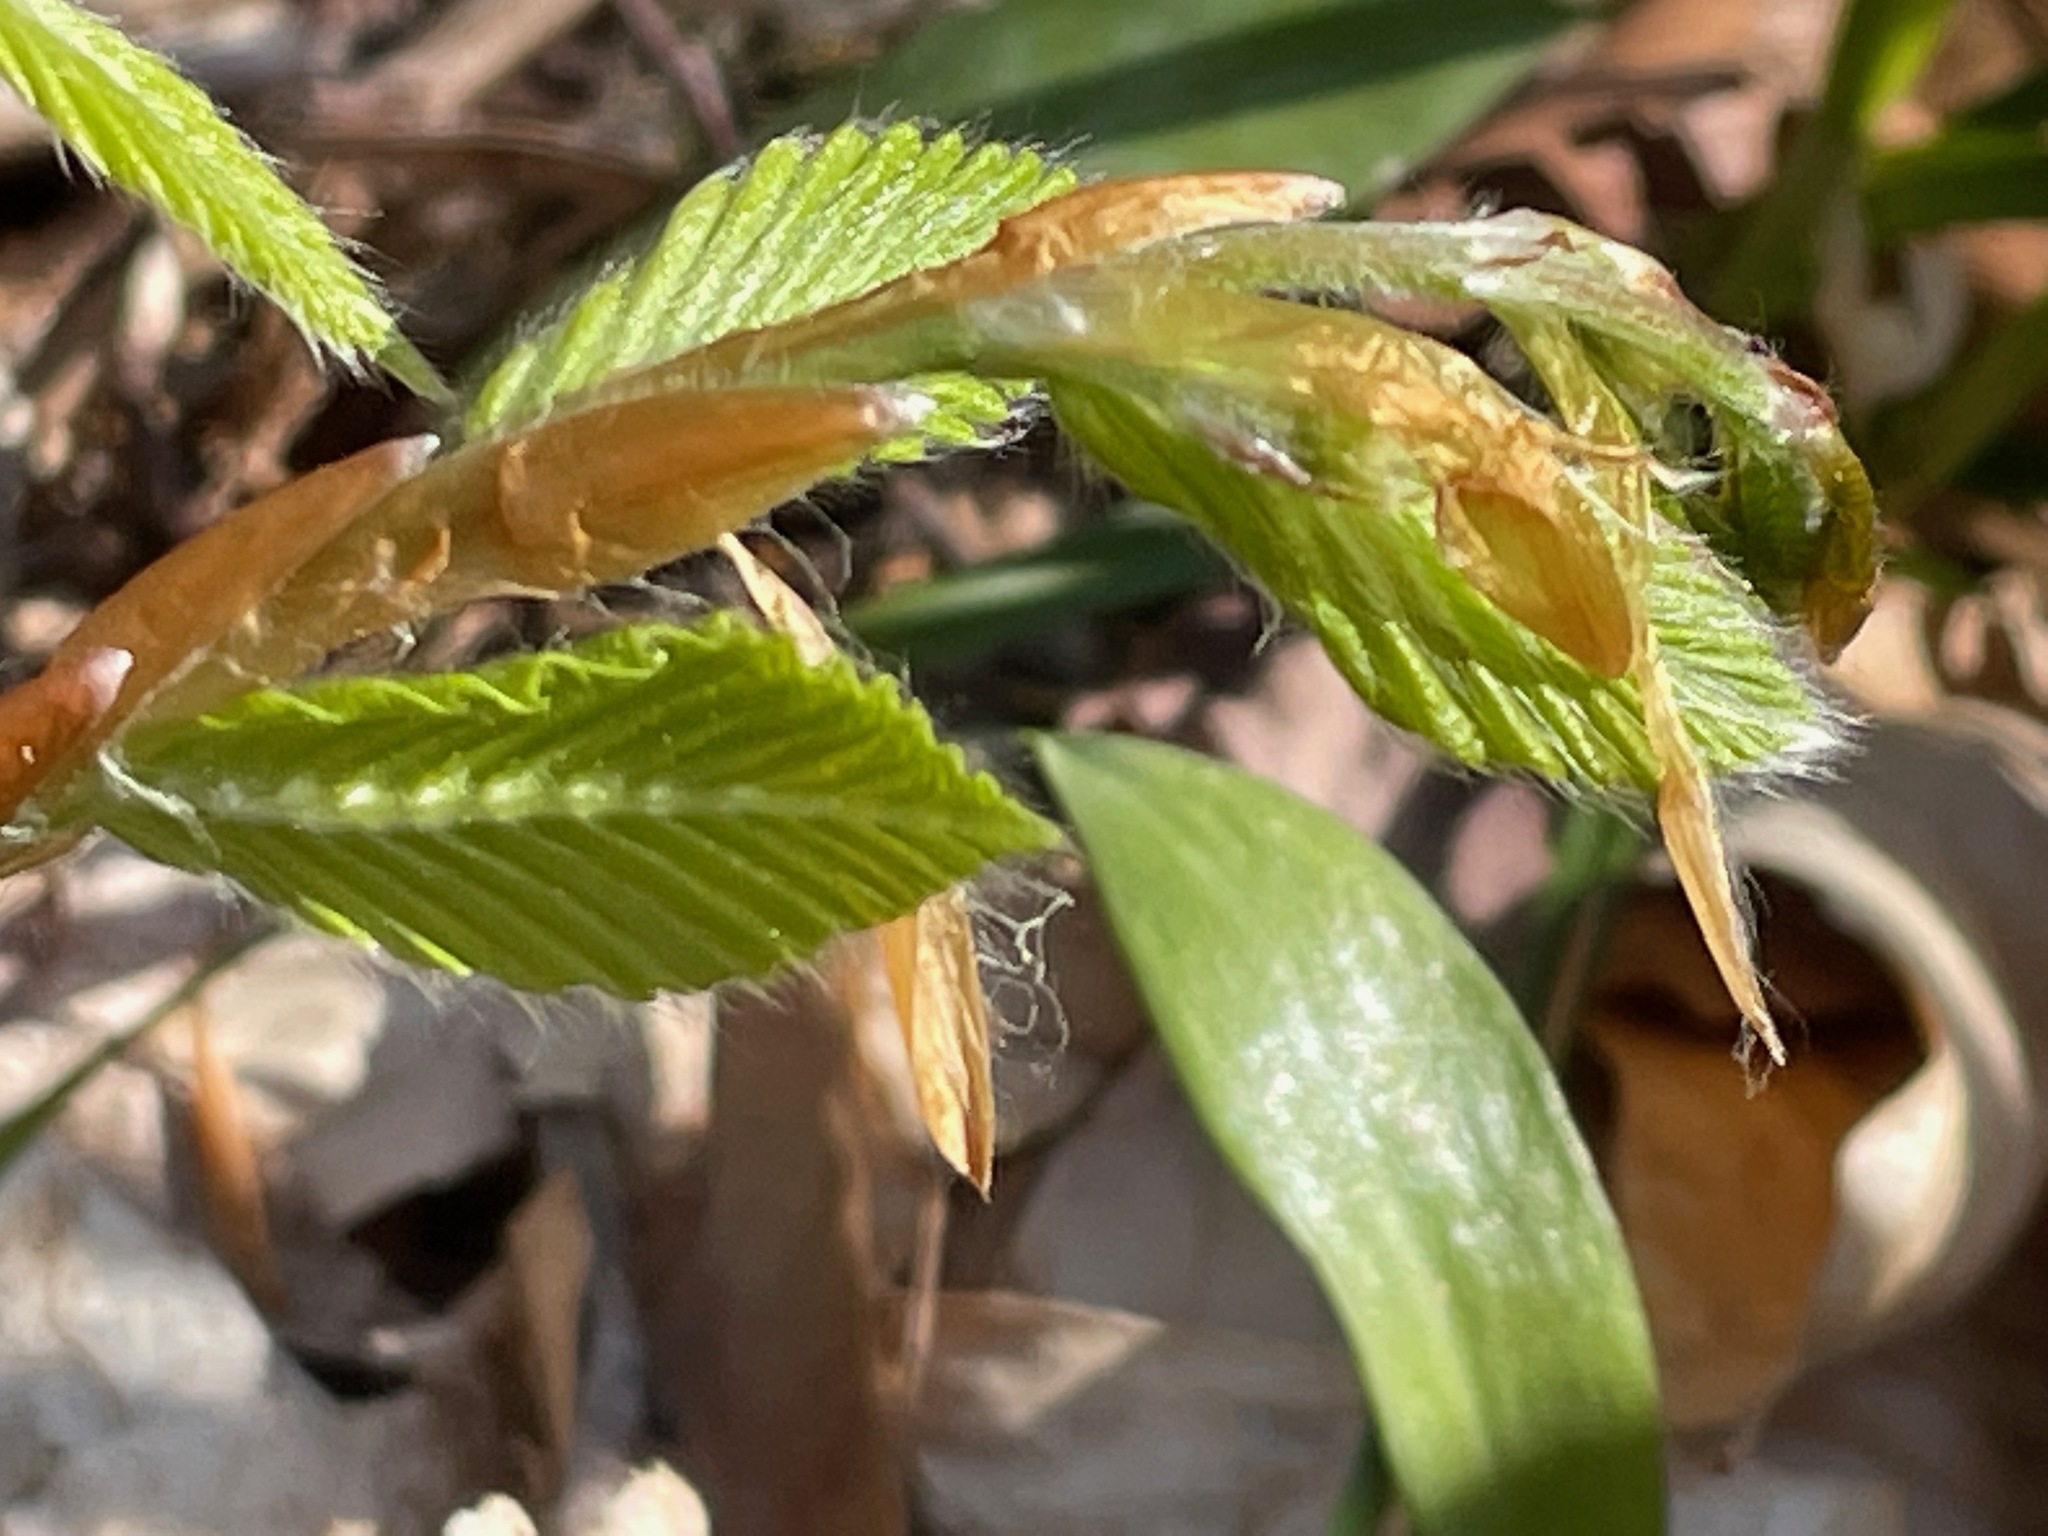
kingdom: Plantae
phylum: Tracheophyta
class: Magnoliopsida
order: Fagales
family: Fagaceae
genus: Fagus
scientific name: Fagus grandifolia
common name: American beech
